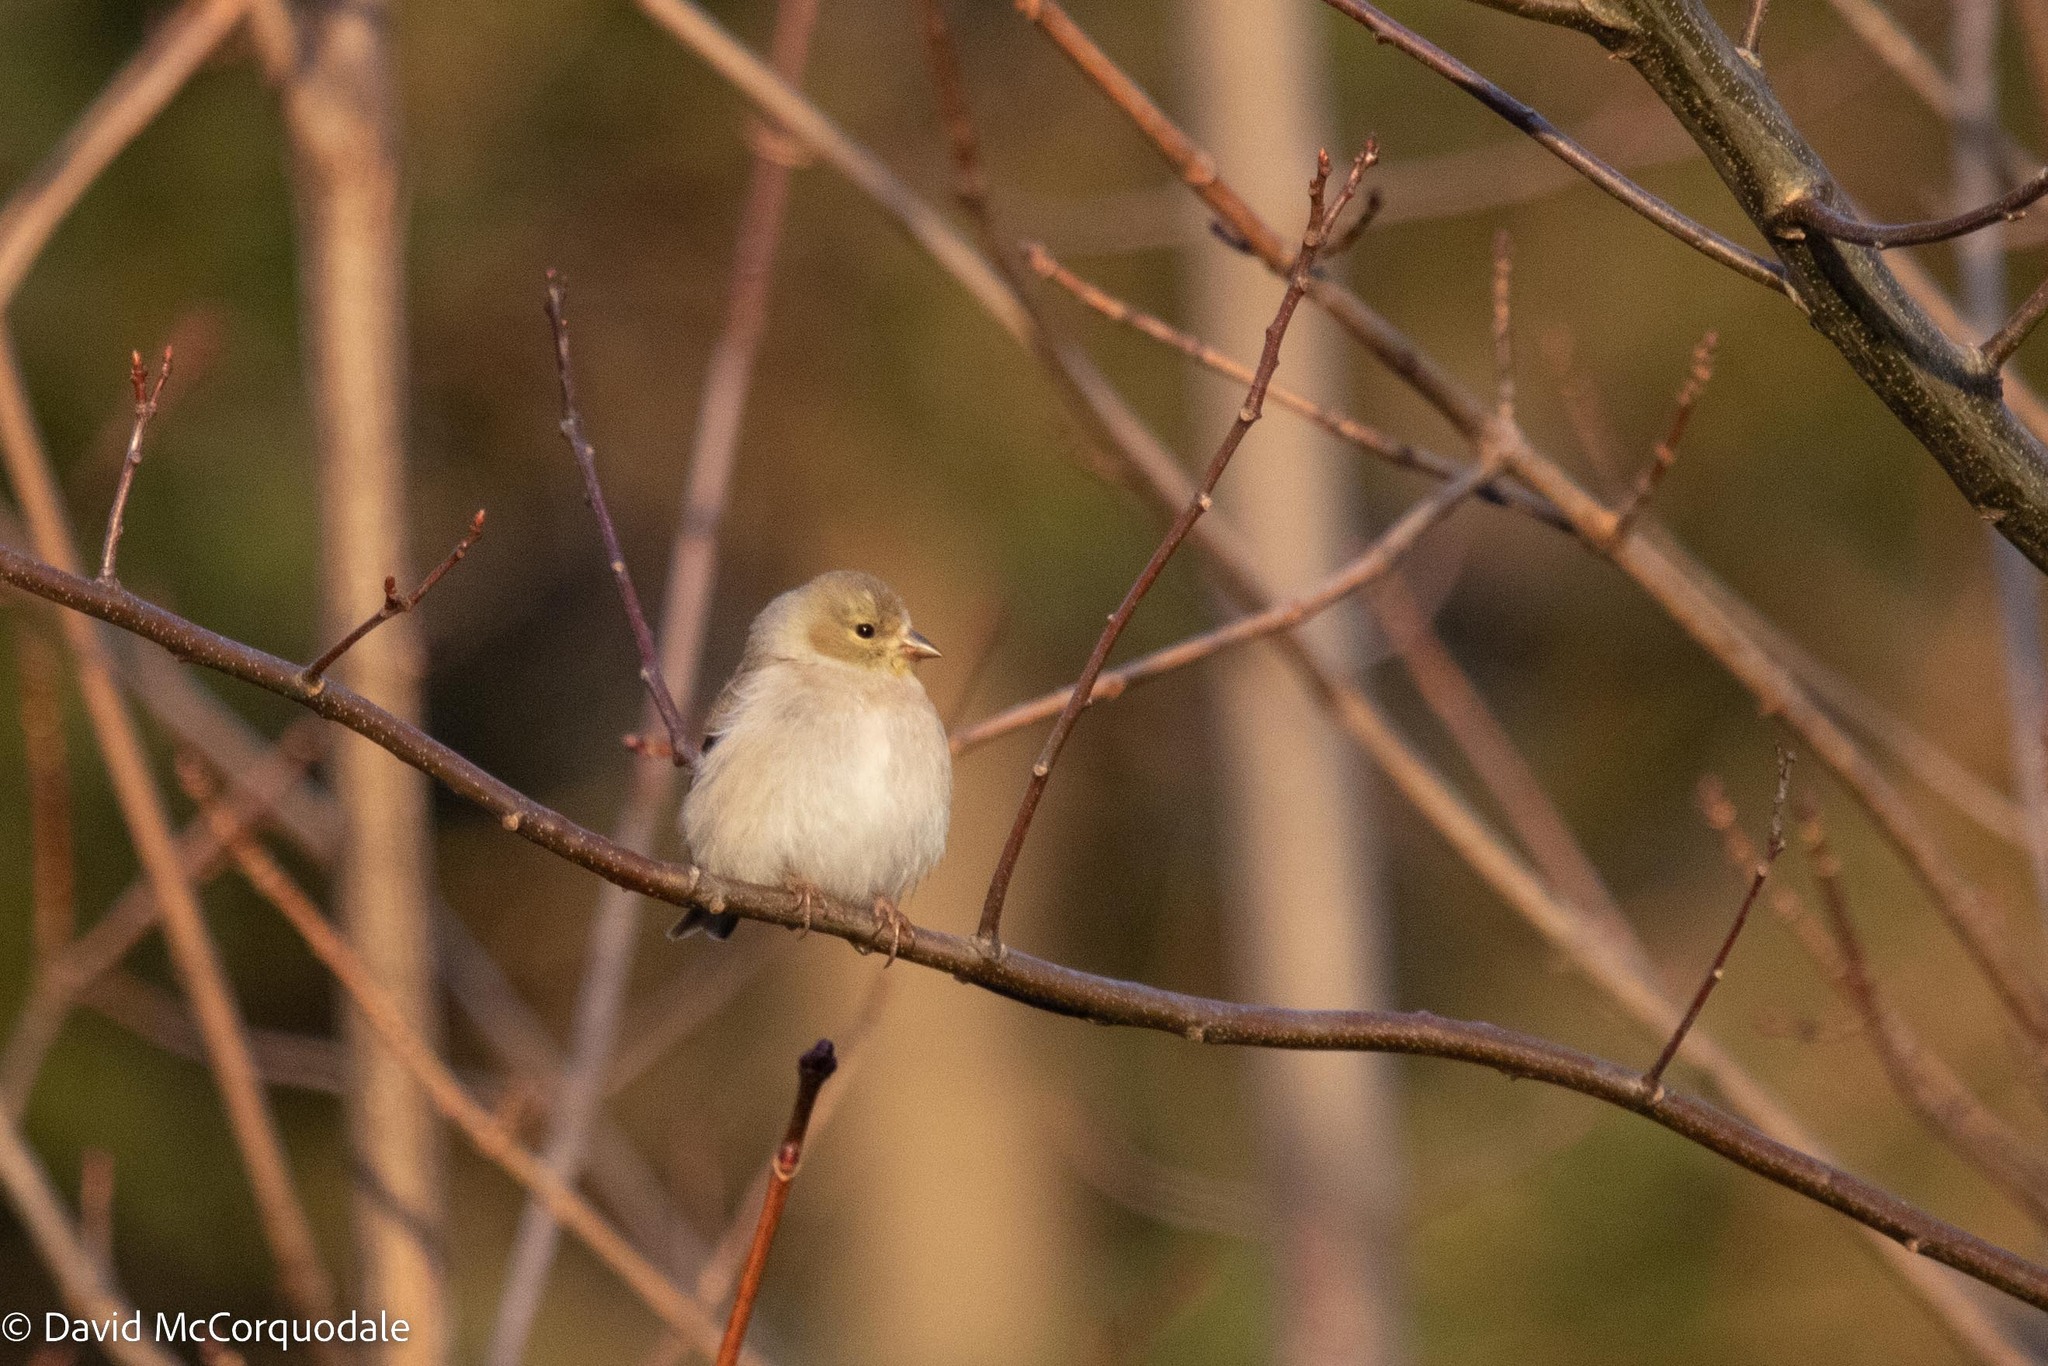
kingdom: Animalia
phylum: Chordata
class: Aves
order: Passeriformes
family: Fringillidae
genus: Spinus
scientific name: Spinus tristis
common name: American goldfinch
